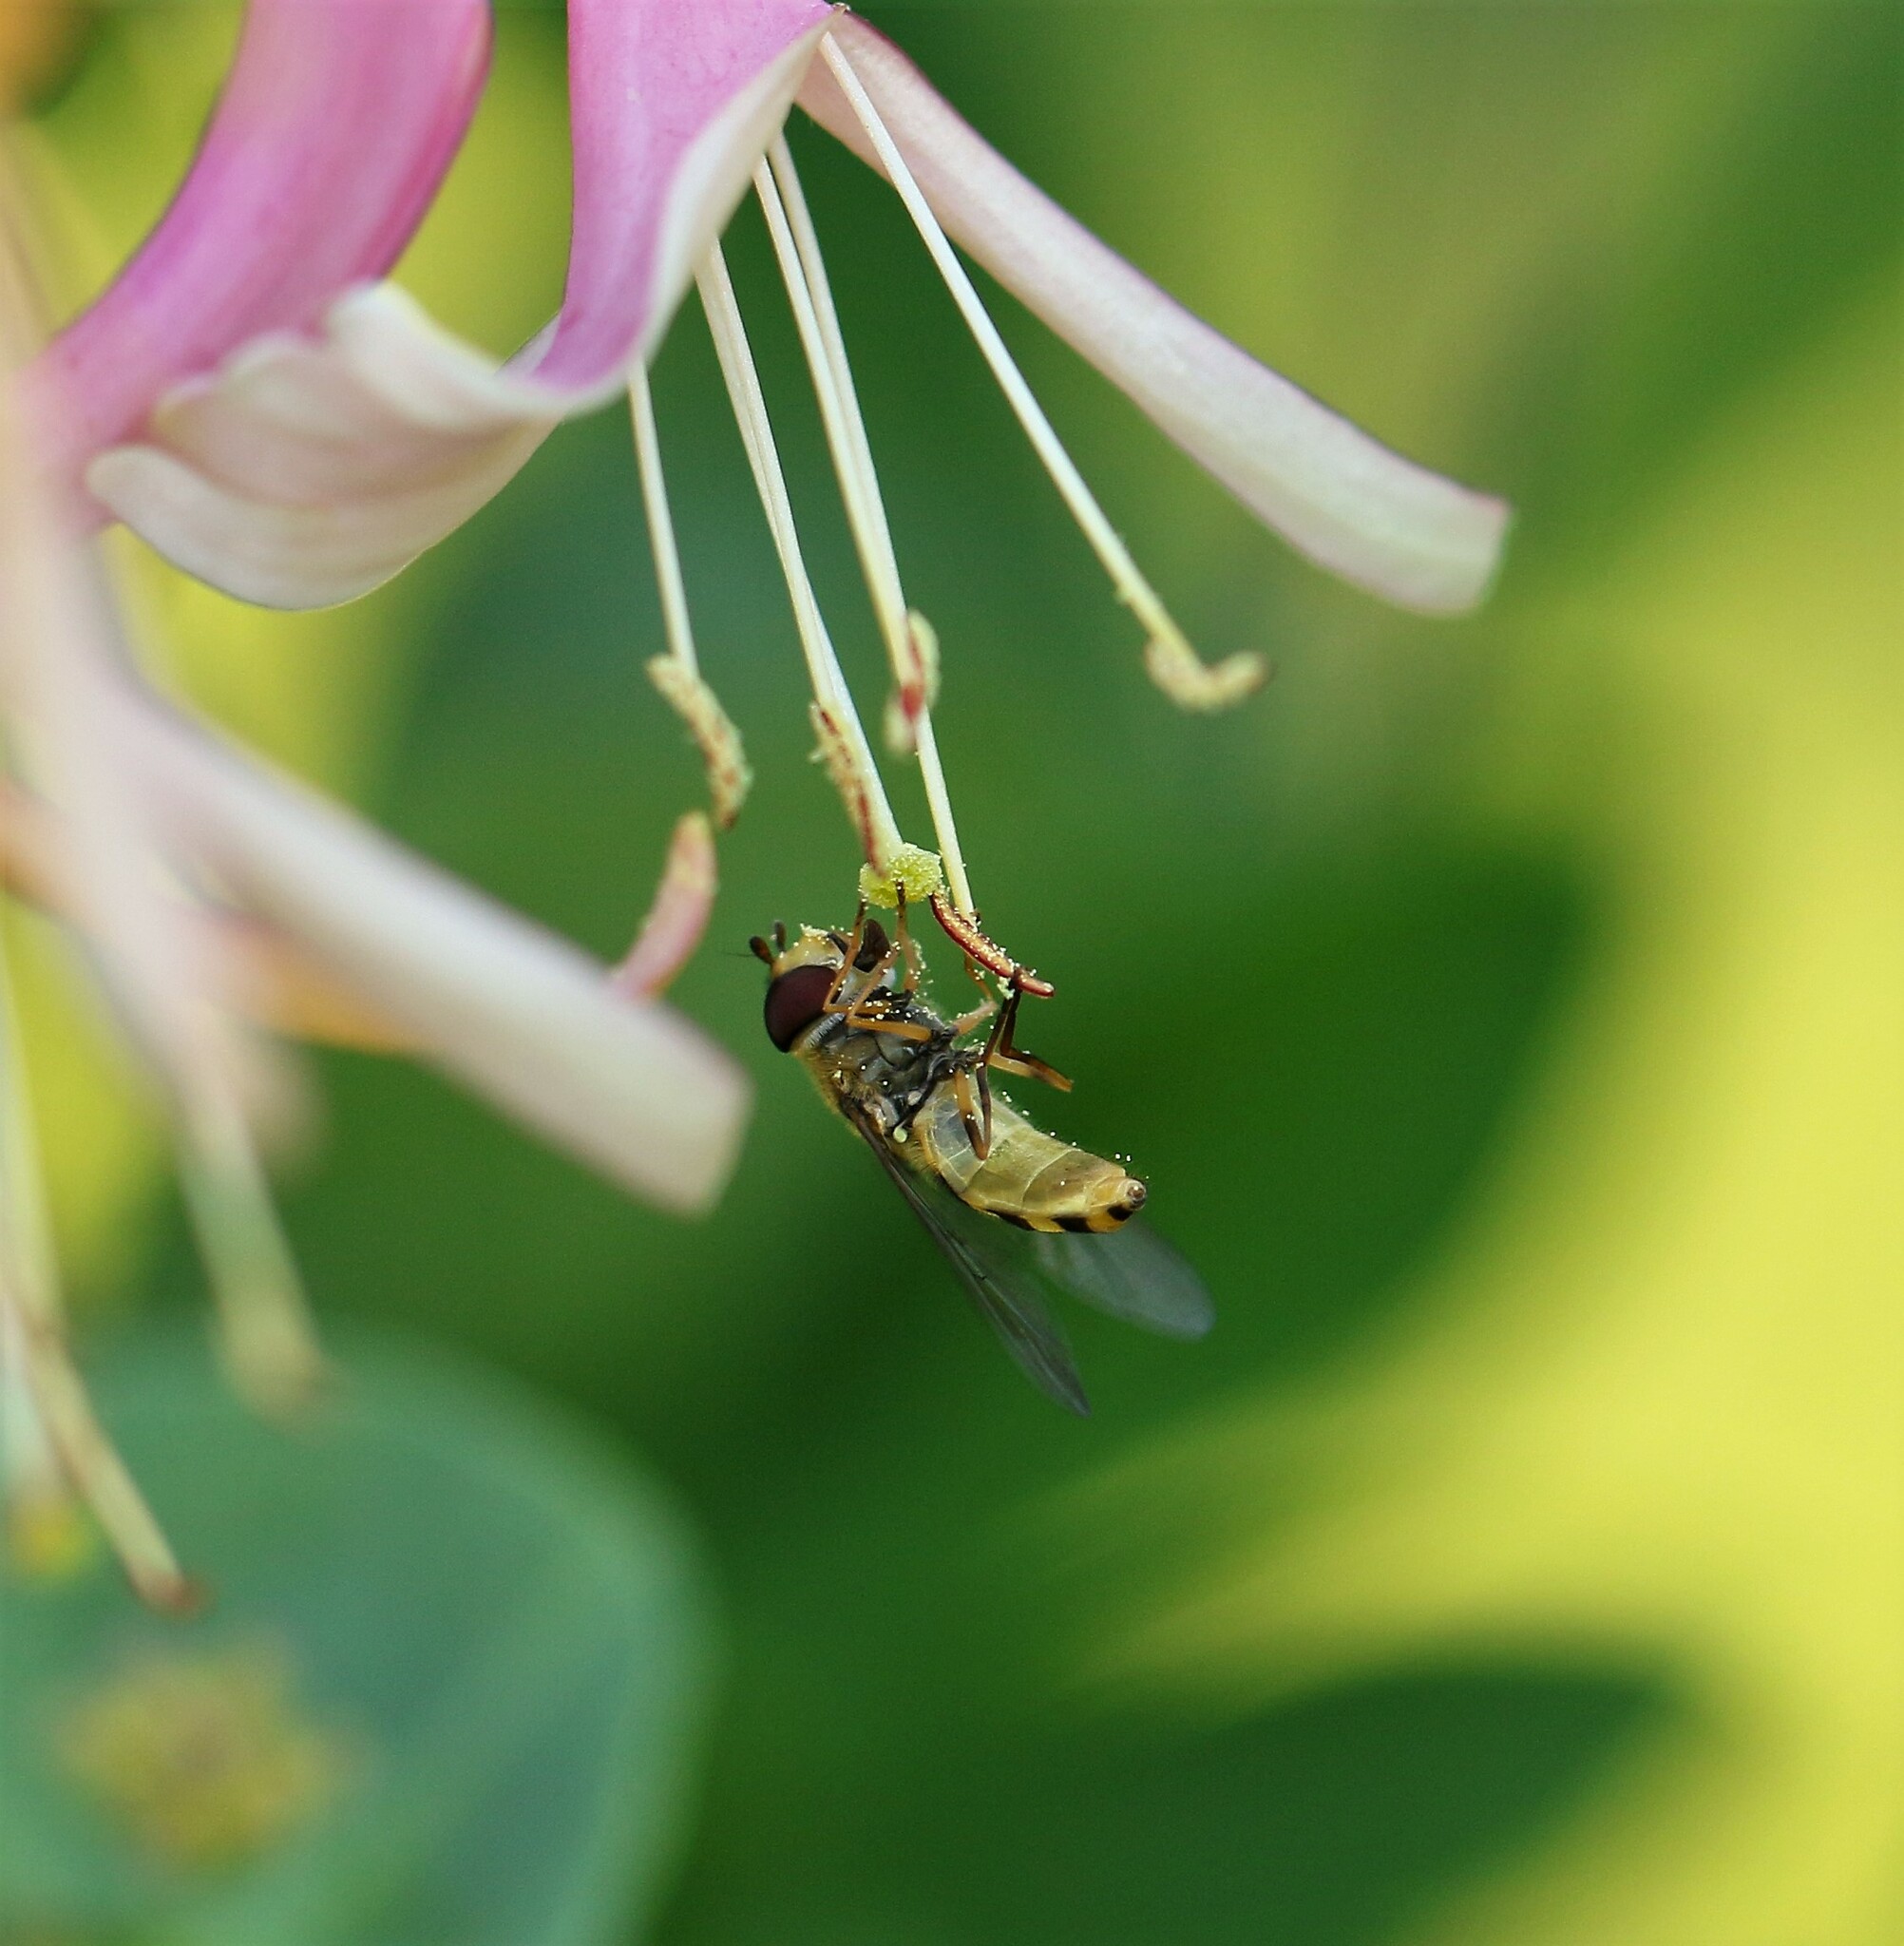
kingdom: Animalia
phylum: Arthropoda
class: Insecta
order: Diptera
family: Syrphidae
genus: Syrphus
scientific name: Syrphus rectus
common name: Yellow-legged flower fly
